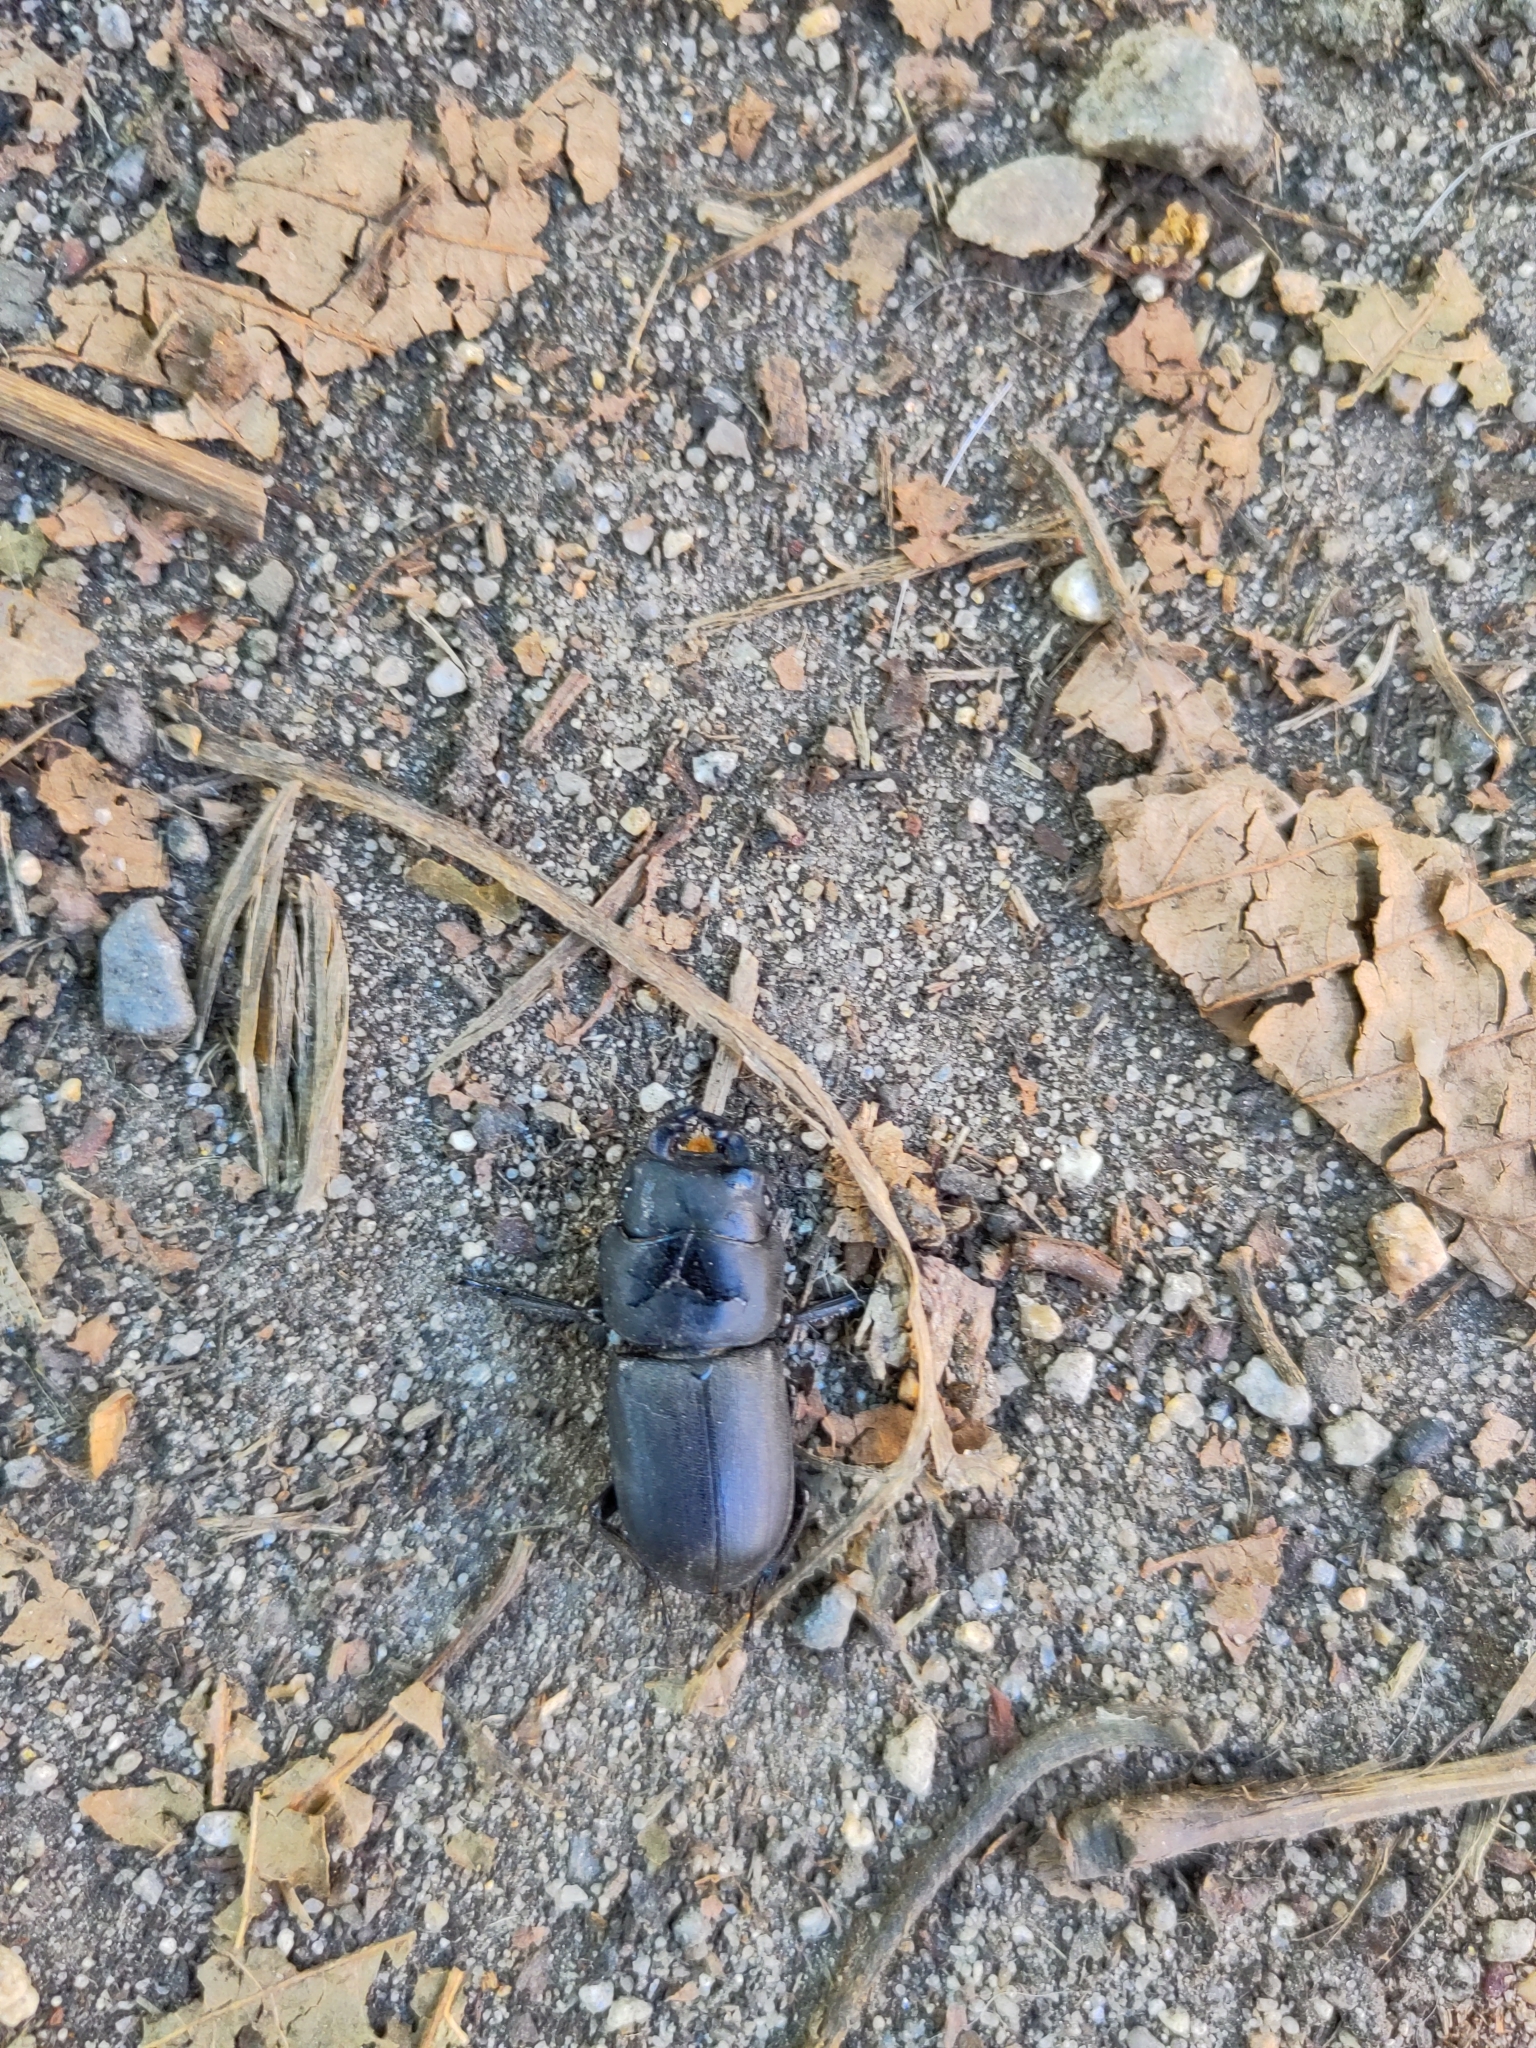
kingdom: Animalia
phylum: Arthropoda
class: Insecta
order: Coleoptera
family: Lucanidae
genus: Dorcus
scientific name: Dorcus parallelipipedus
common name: Lesser stag beetle
